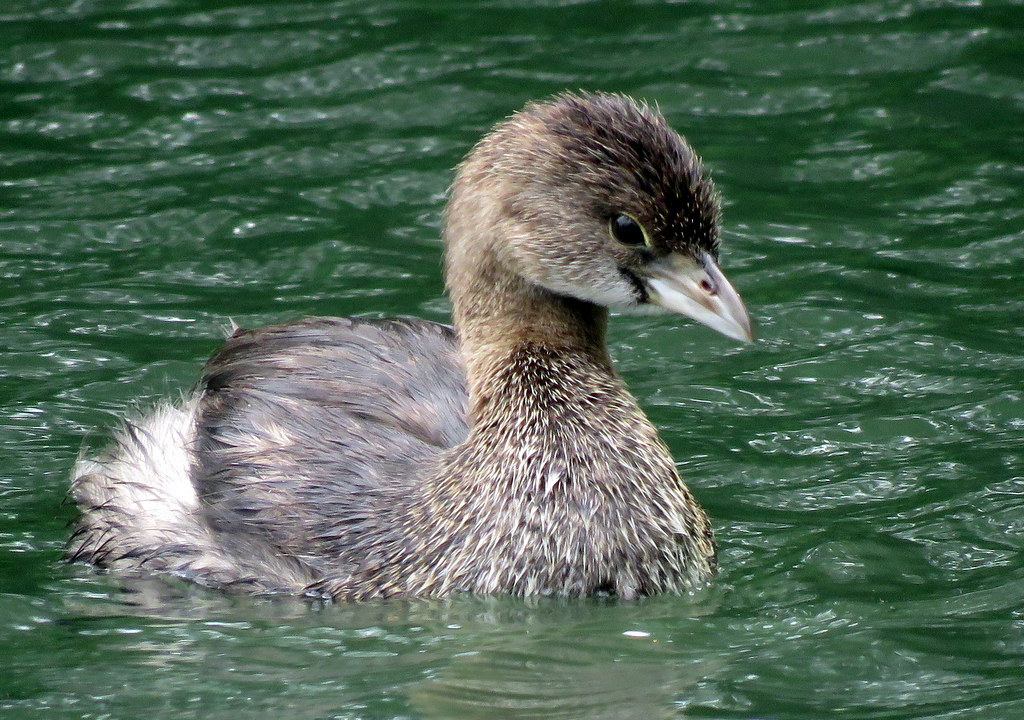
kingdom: Animalia
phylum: Chordata
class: Aves
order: Podicipediformes
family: Podicipedidae
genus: Podilymbus
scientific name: Podilymbus podiceps
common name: Pied-billed grebe
